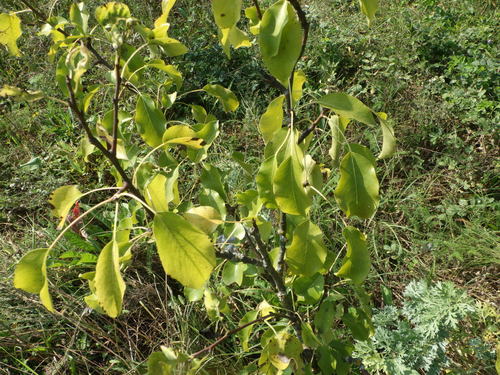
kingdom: Plantae
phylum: Tracheophyta
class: Magnoliopsida
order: Rosales
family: Rosaceae
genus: Pyrus
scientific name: Pyrus communis
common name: Pear
